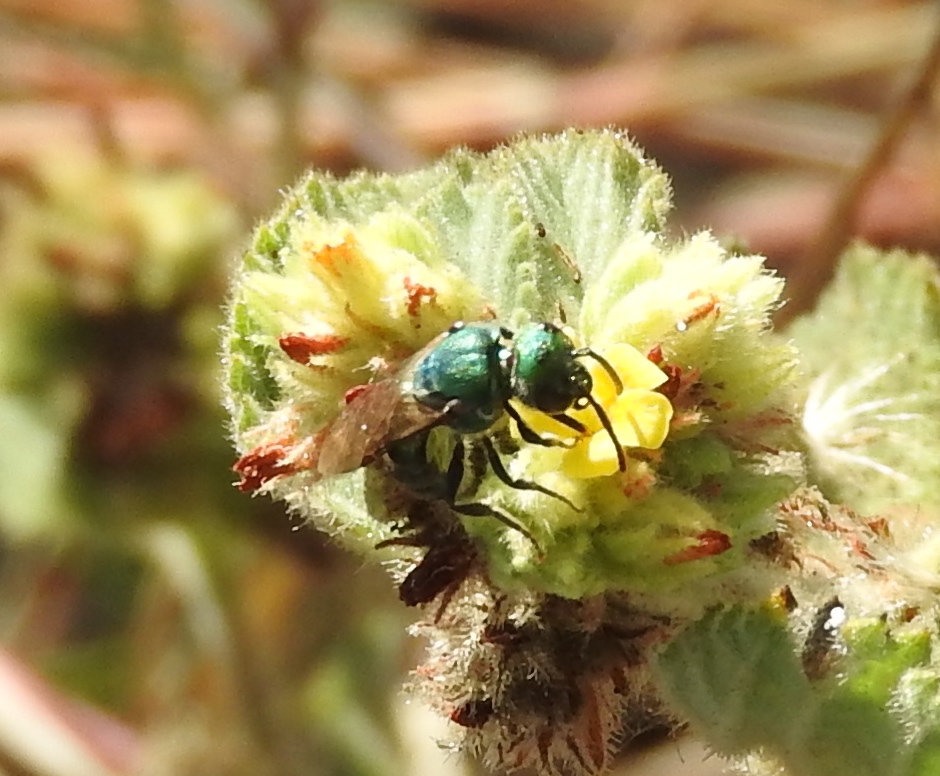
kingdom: Animalia
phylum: Arthropoda
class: Insecta
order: Hymenoptera
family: Halictidae
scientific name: Halictidae
